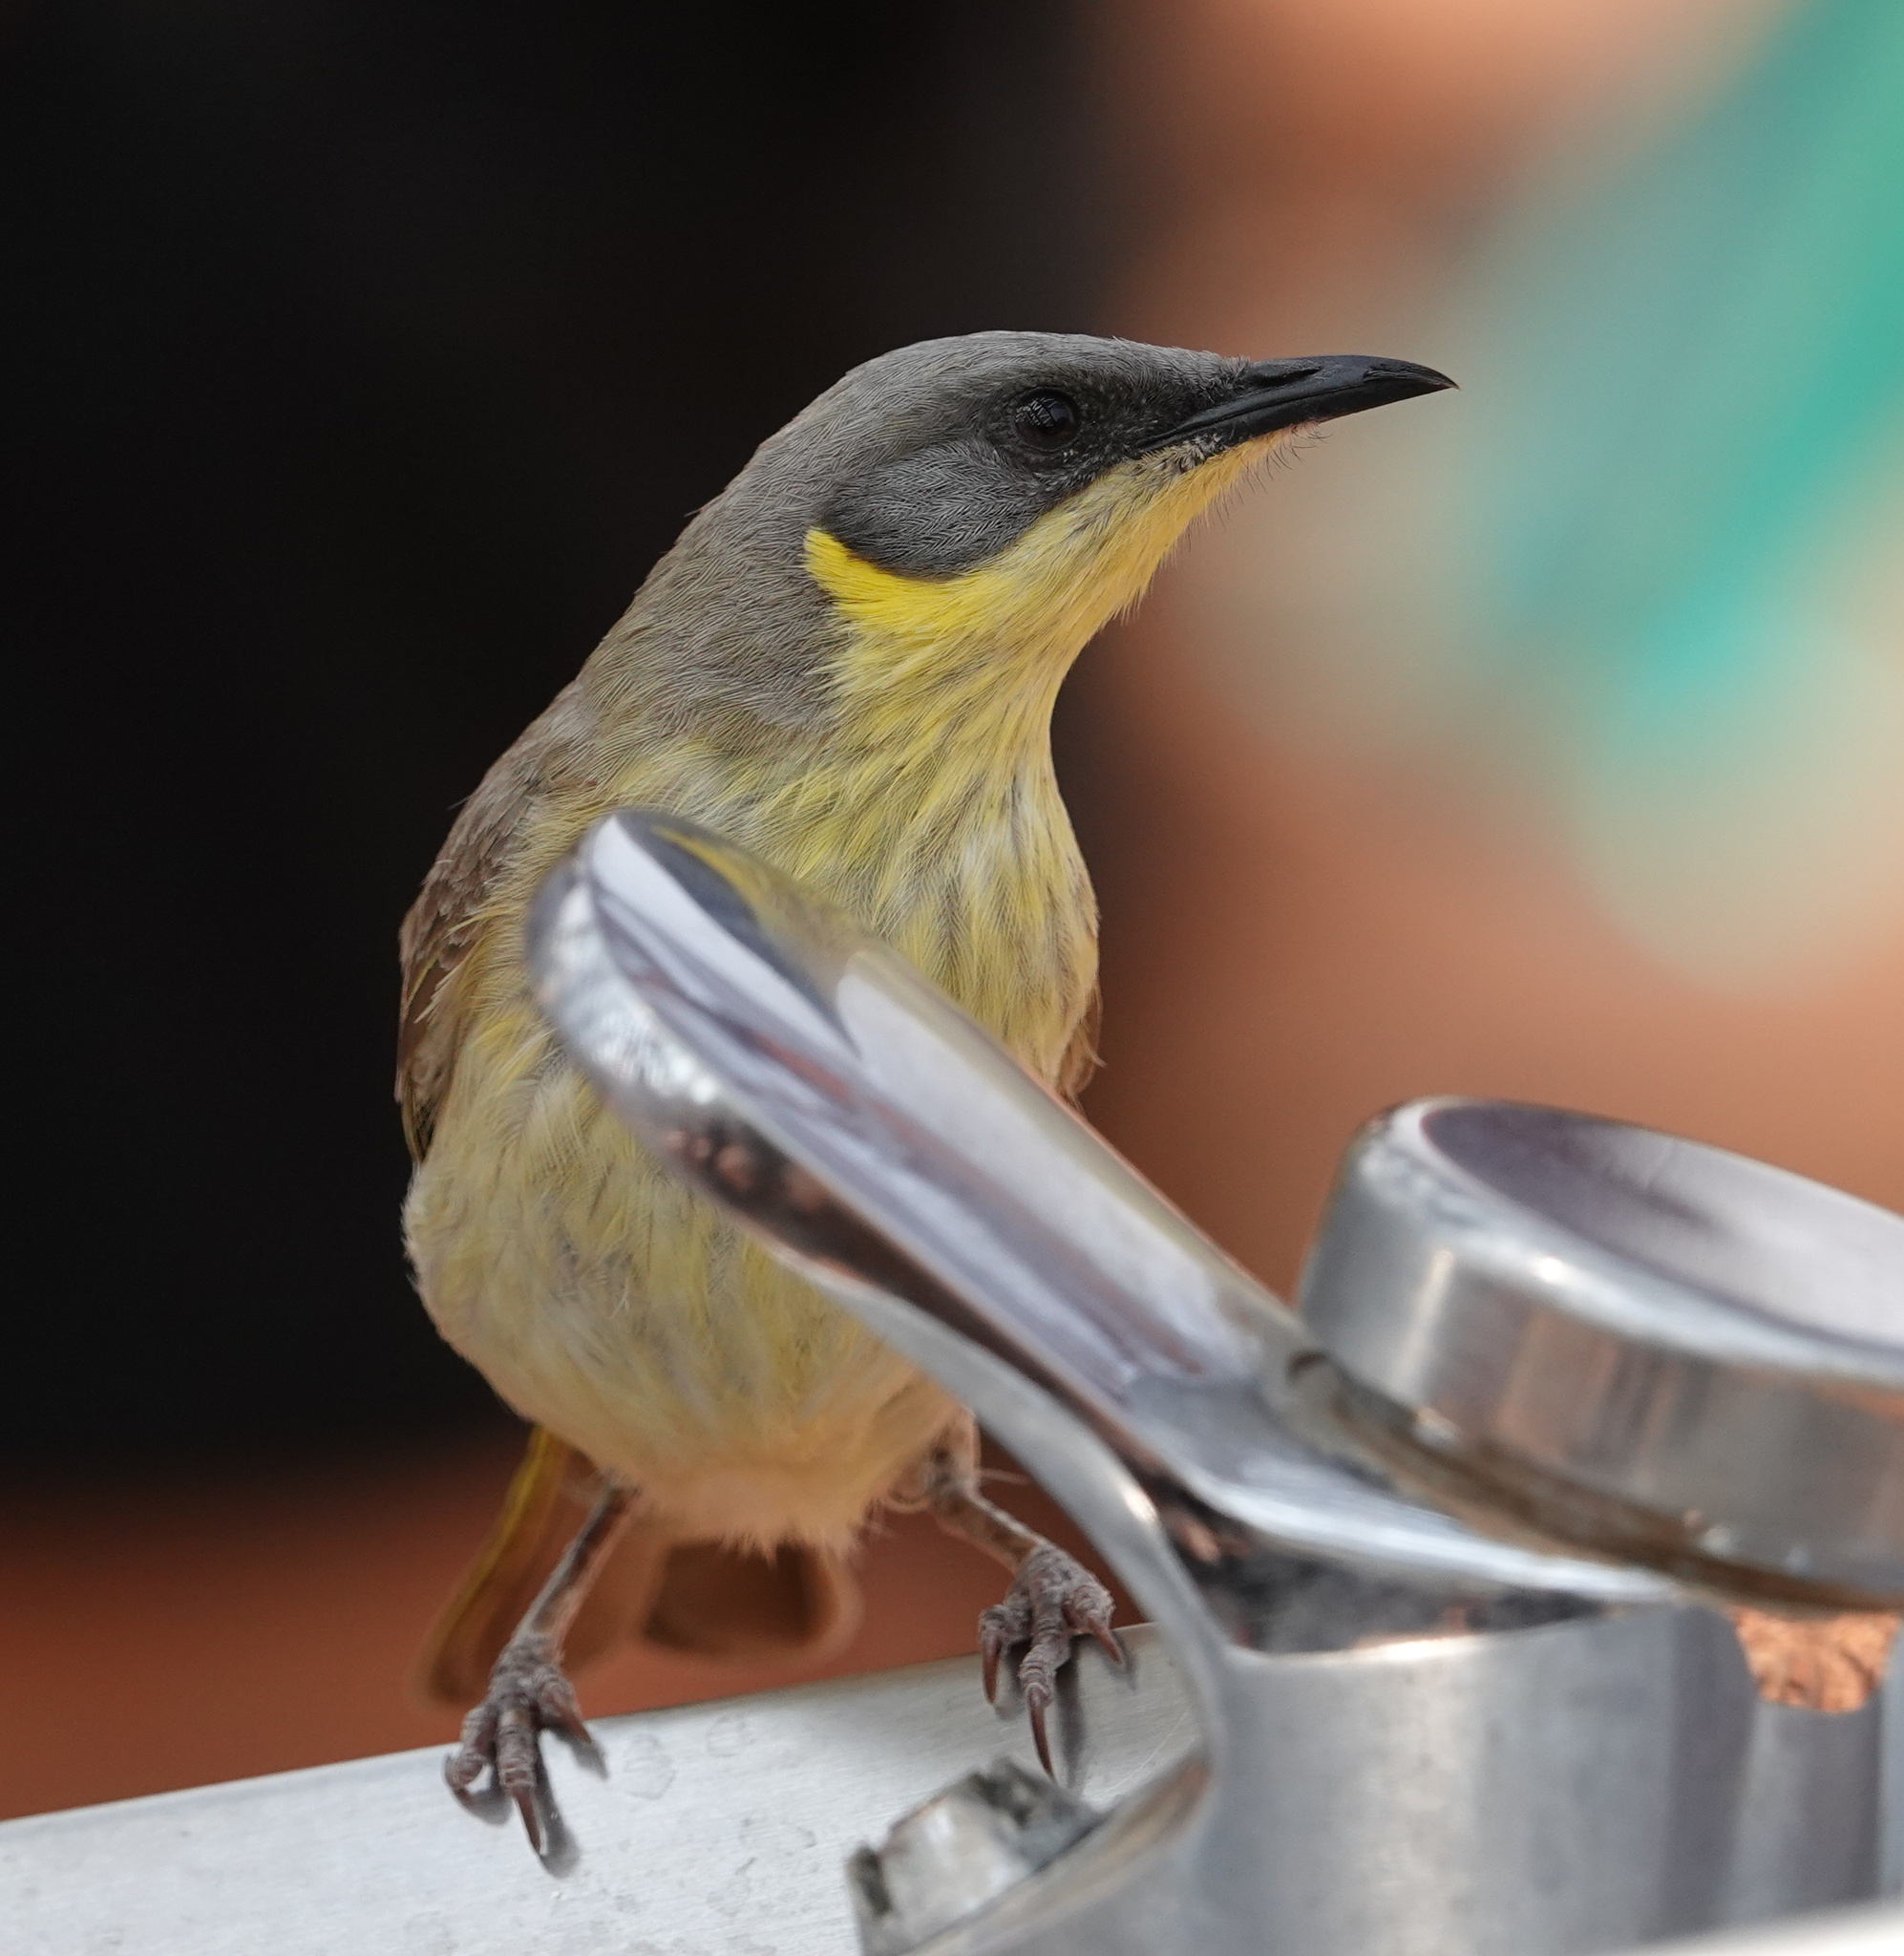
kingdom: Animalia
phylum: Chordata
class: Aves
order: Passeriformes
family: Meliphagidae
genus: Ptilotula
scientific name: Ptilotula keartlandi
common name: Grey-headed honeyeater
